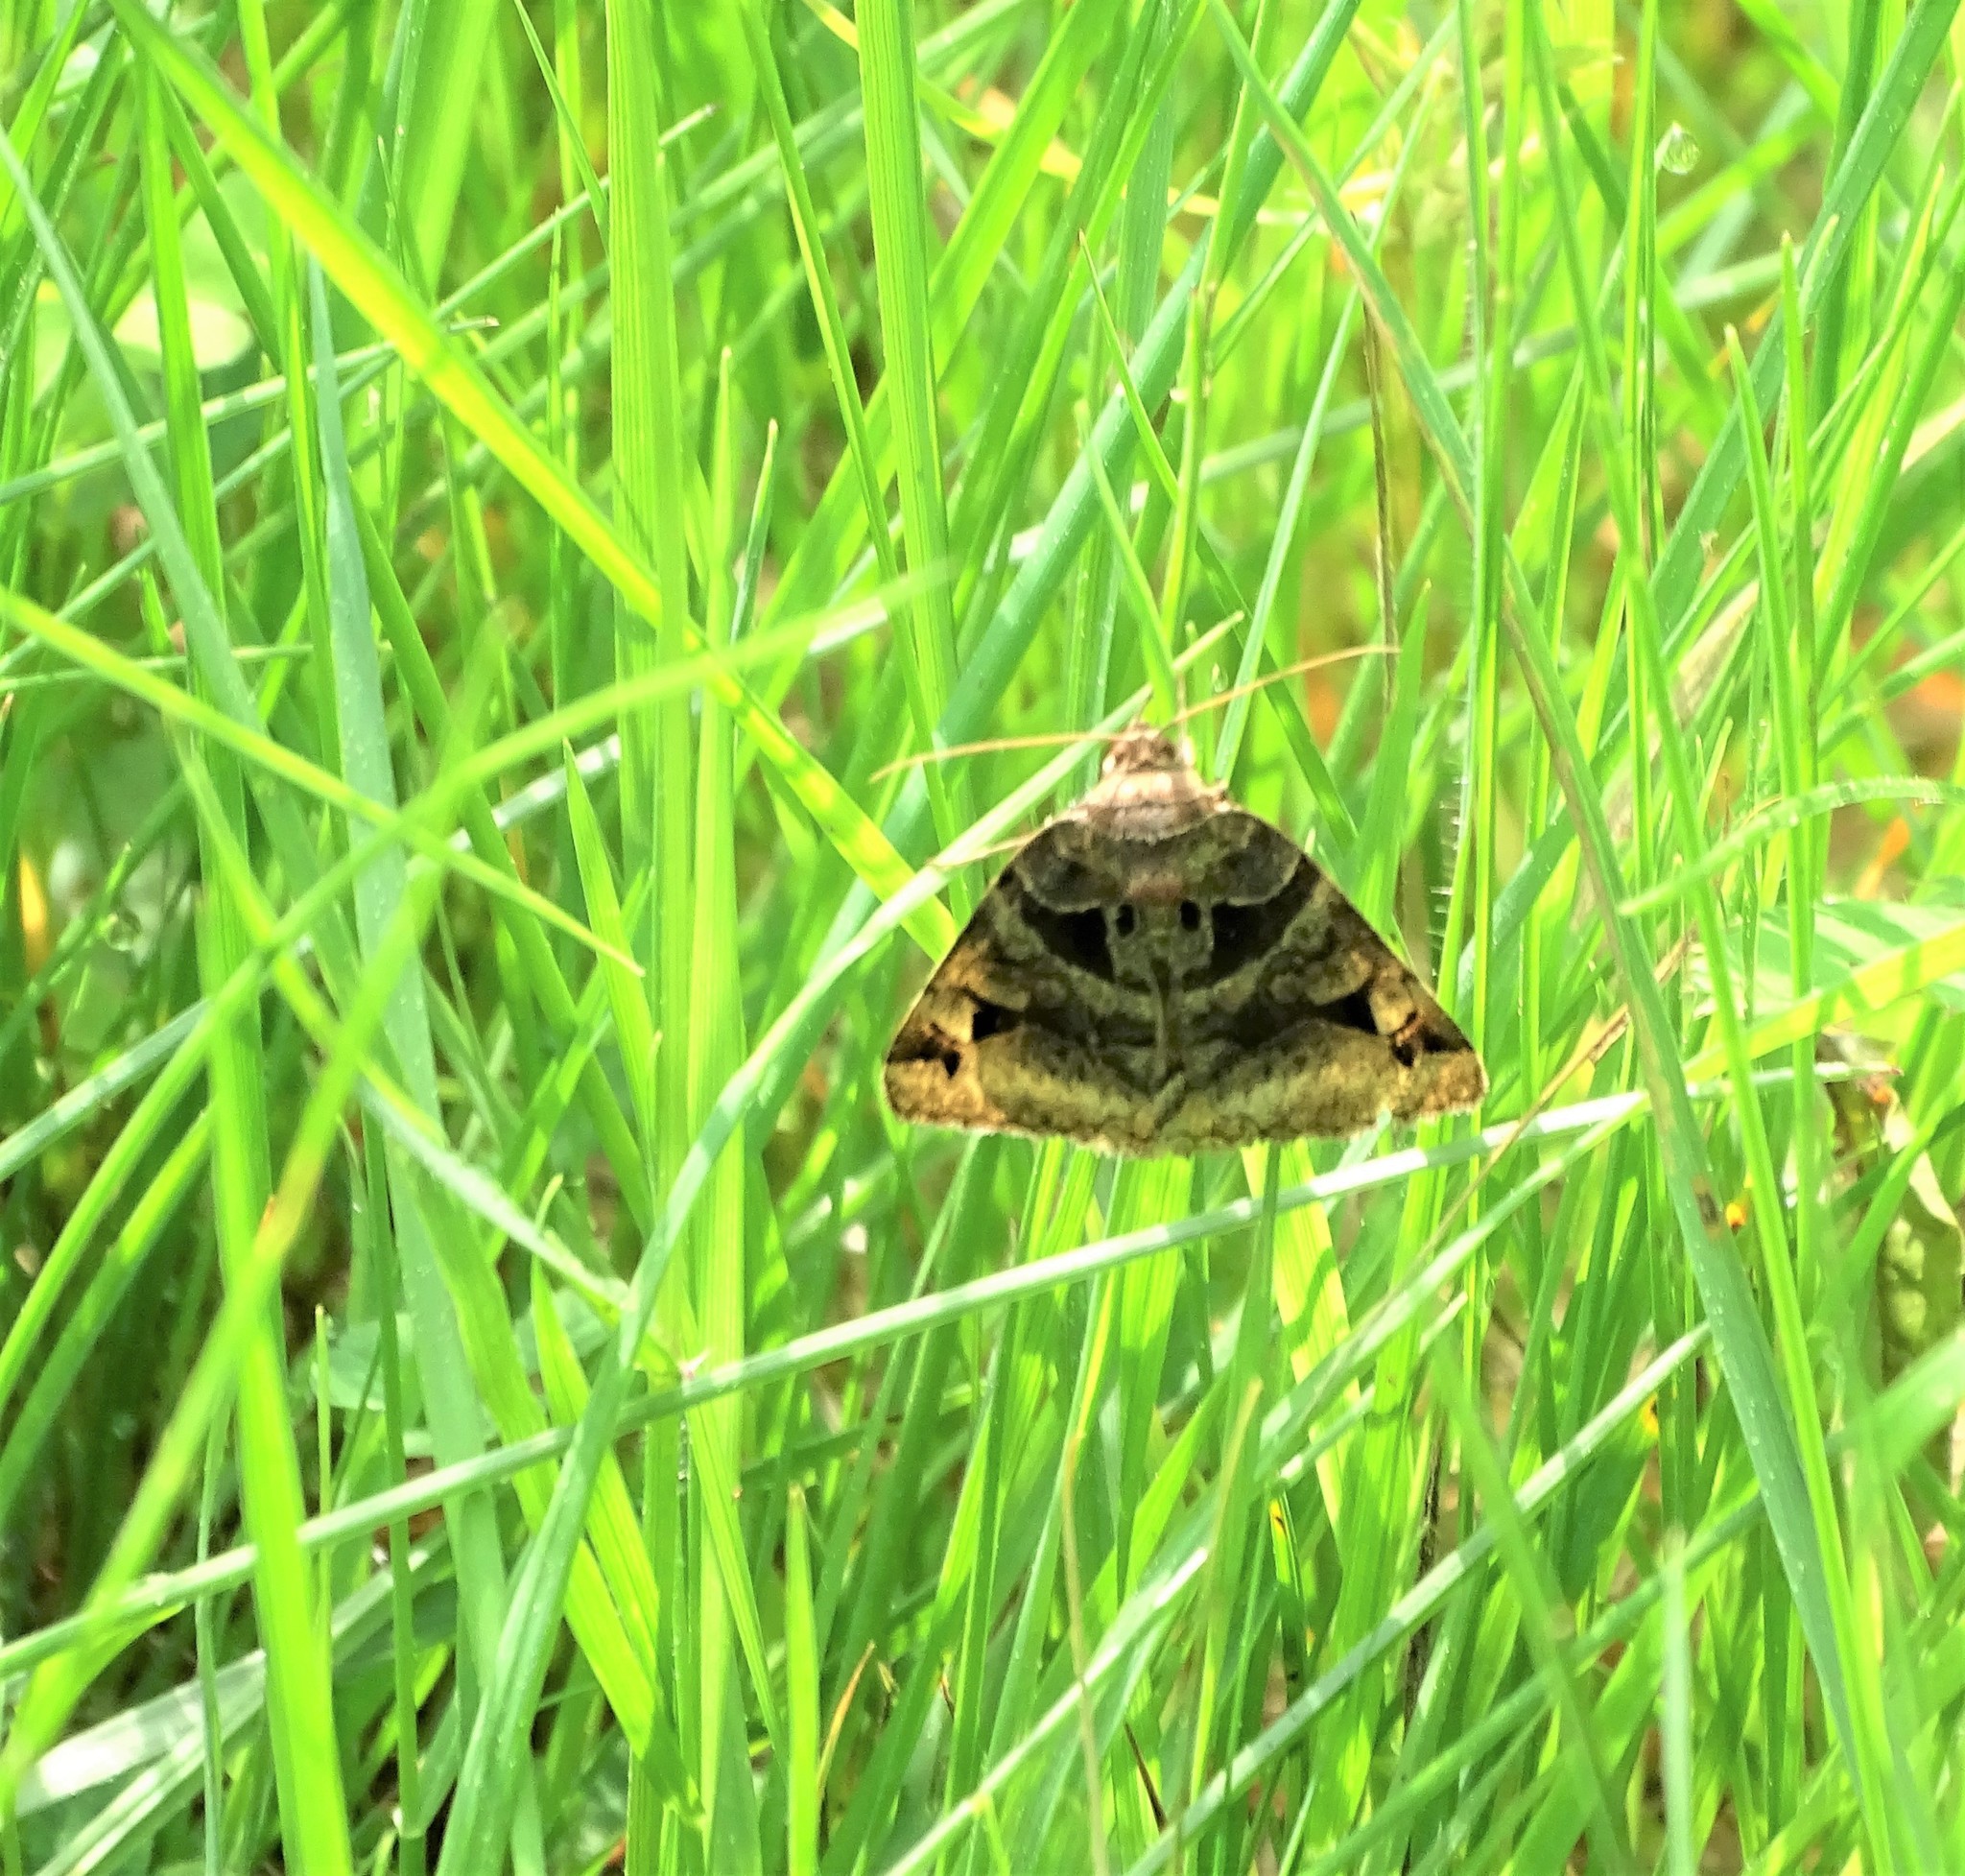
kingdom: Animalia
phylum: Arthropoda
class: Insecta
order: Lepidoptera
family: Erebidae
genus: Euclidia
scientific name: Euclidia cuspidea
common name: Toothed somberwing
